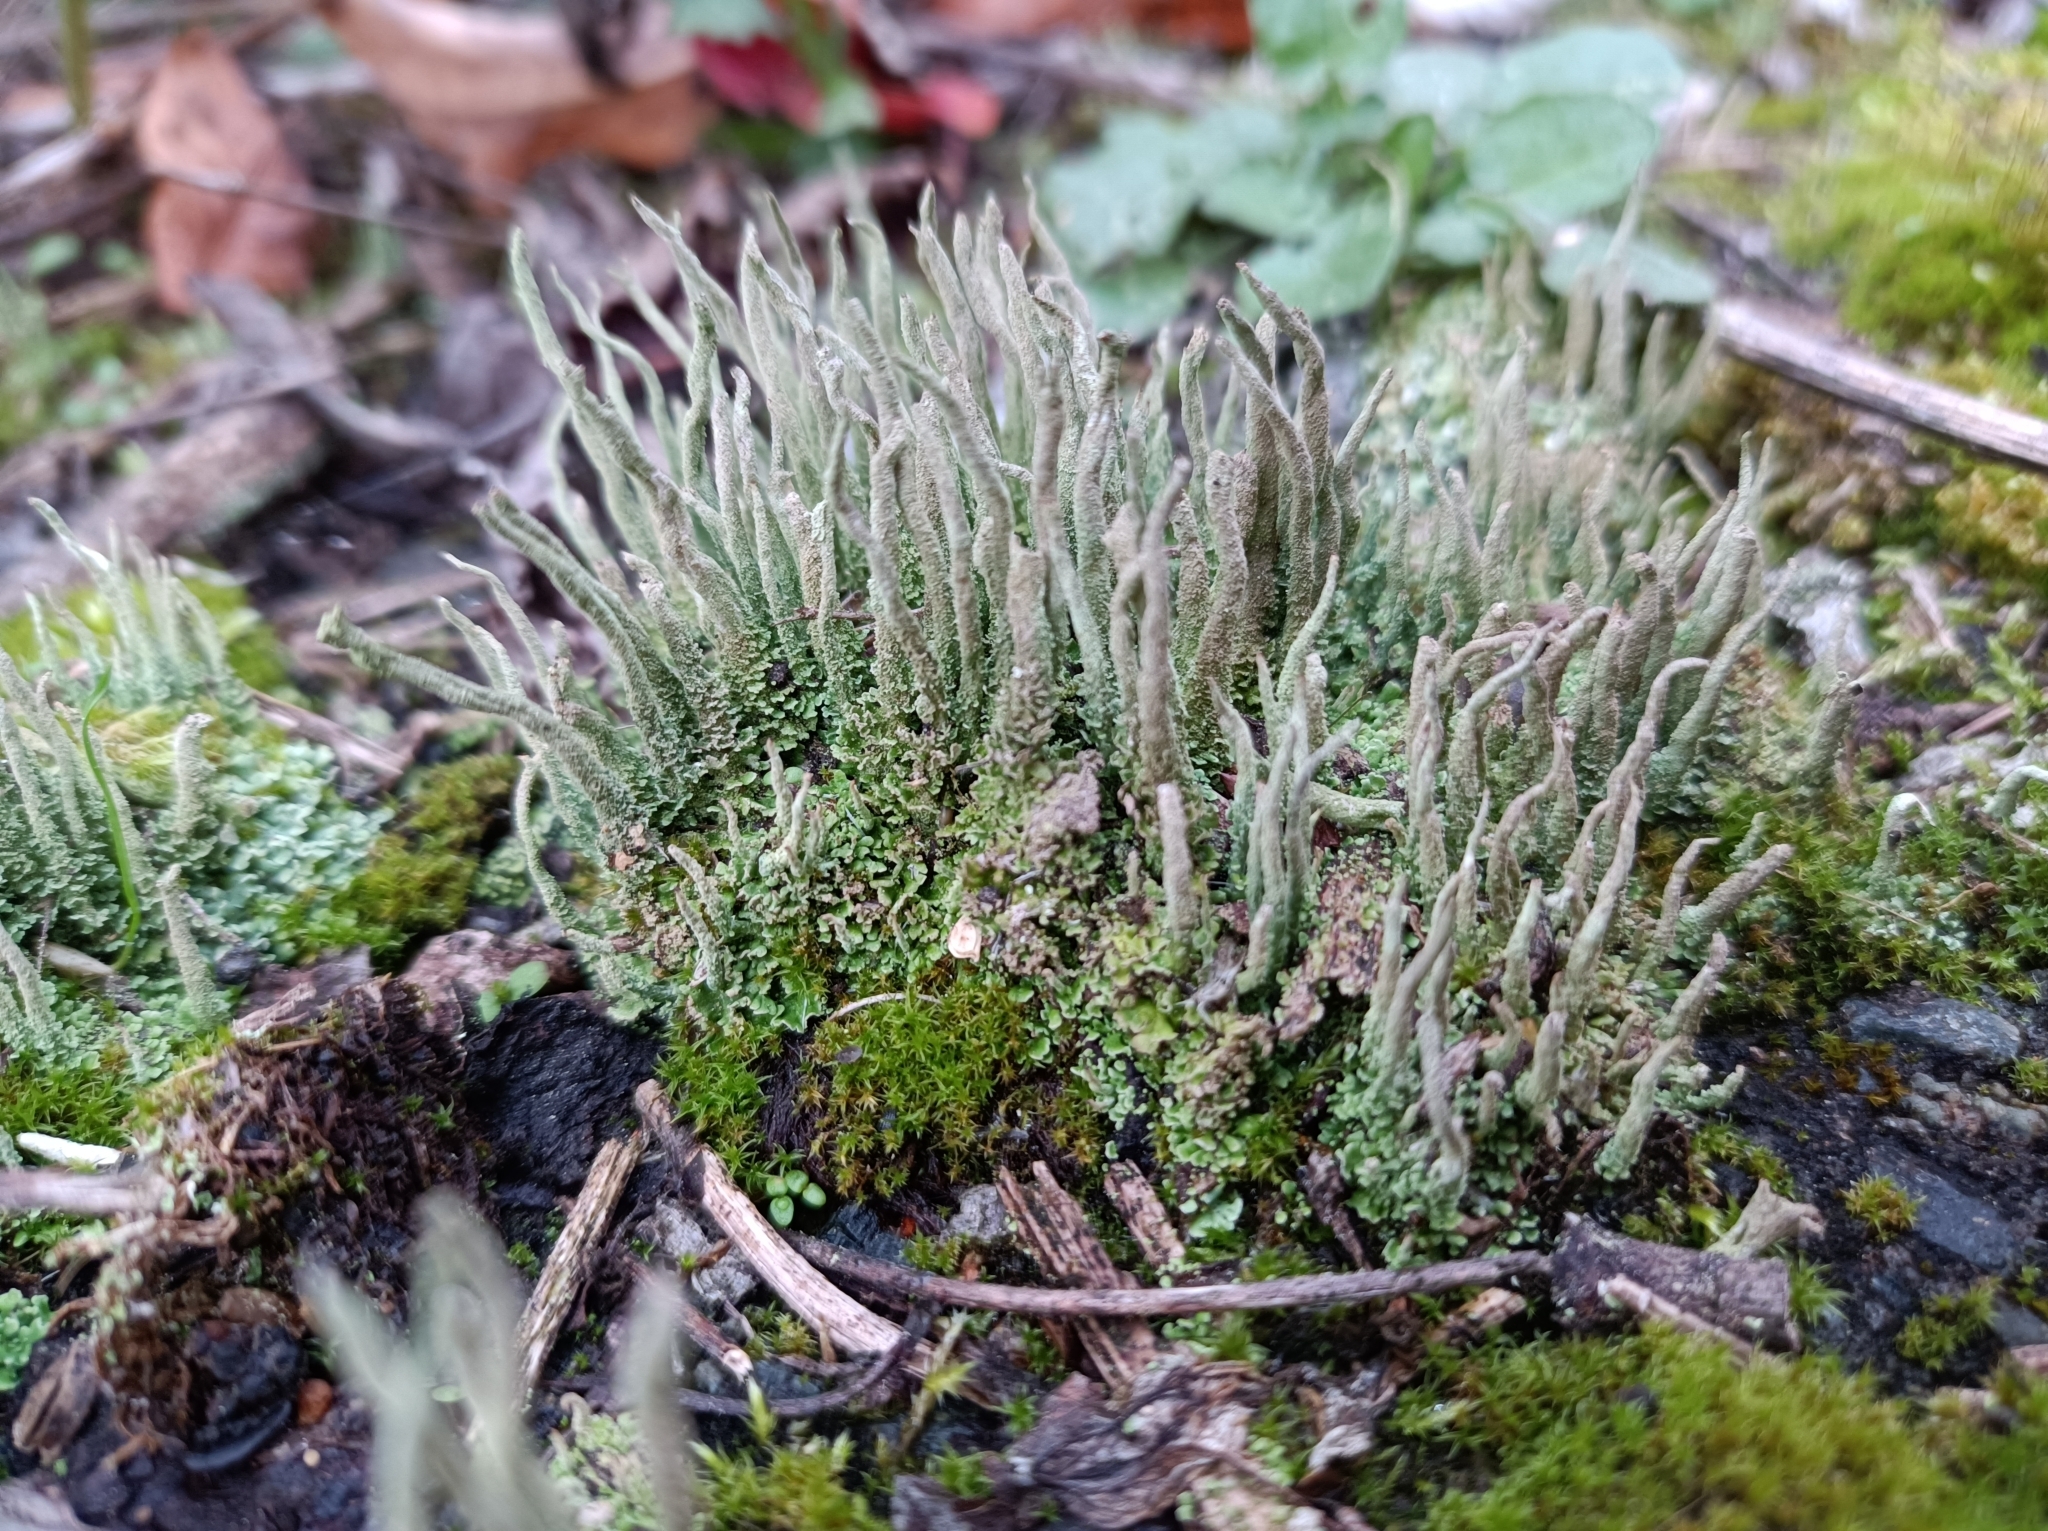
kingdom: Fungi
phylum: Ascomycota
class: Lecanoromycetes
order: Lecanorales
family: Cladoniaceae
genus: Cladonia
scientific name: Cladonia coniocraea
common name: Common powderhorn
